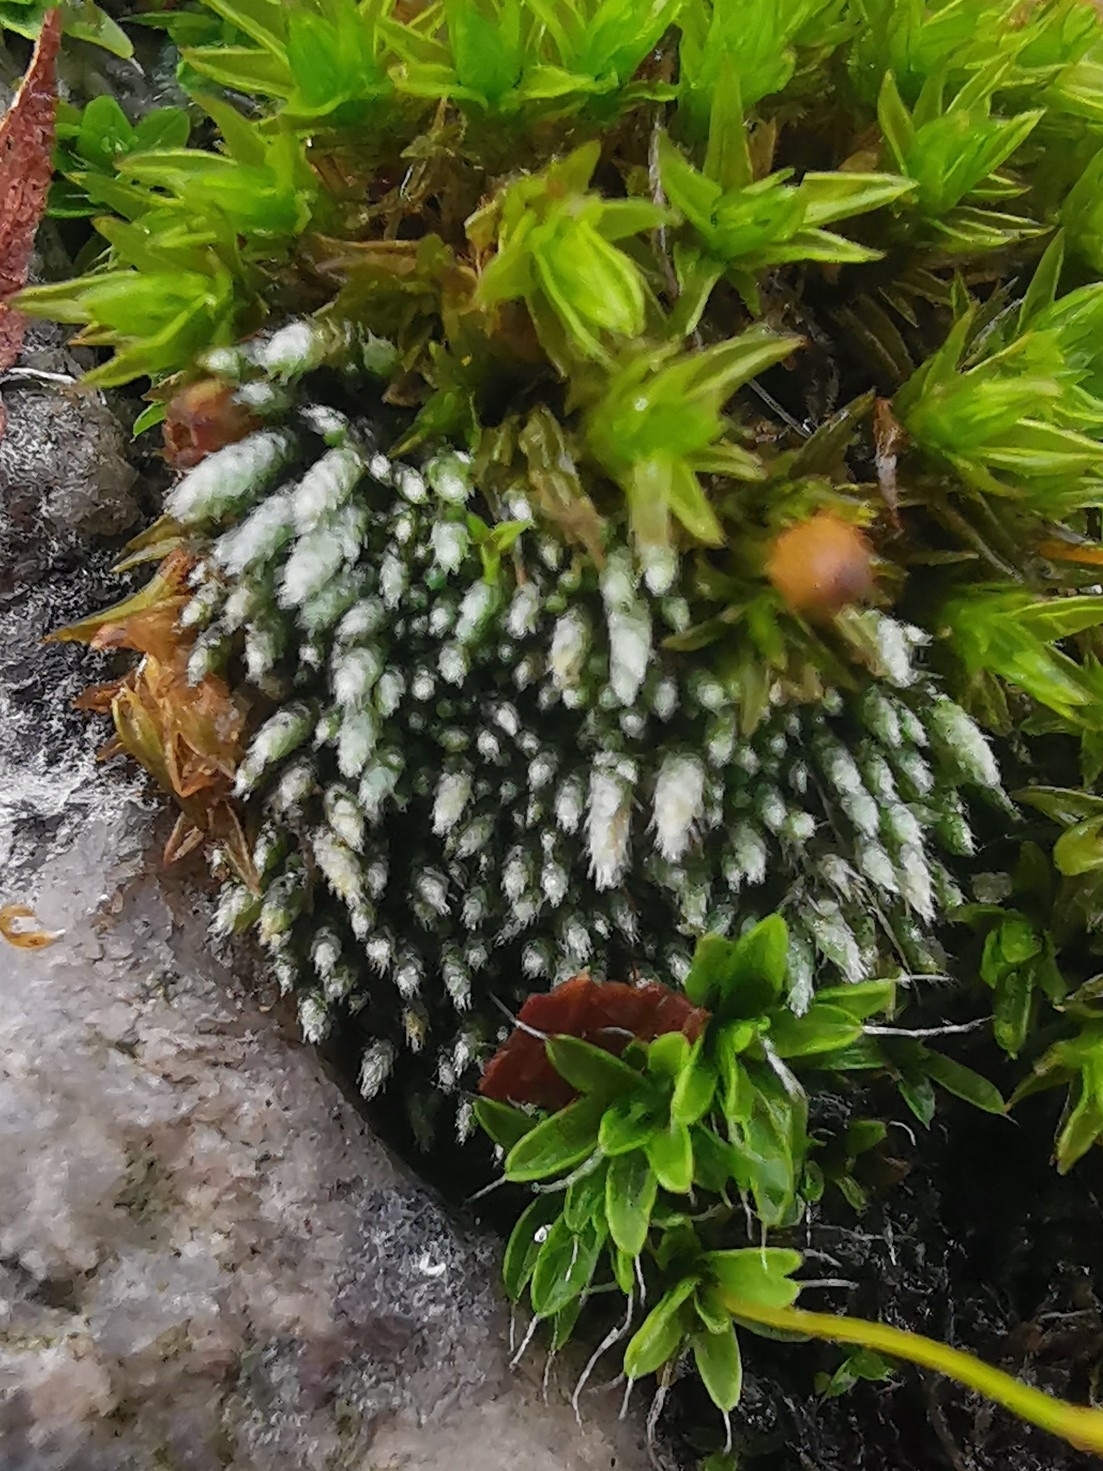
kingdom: Plantae
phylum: Bryophyta
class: Bryopsida
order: Bryales
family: Bryaceae
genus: Bryum
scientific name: Bryum argenteum
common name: Silver-moss
